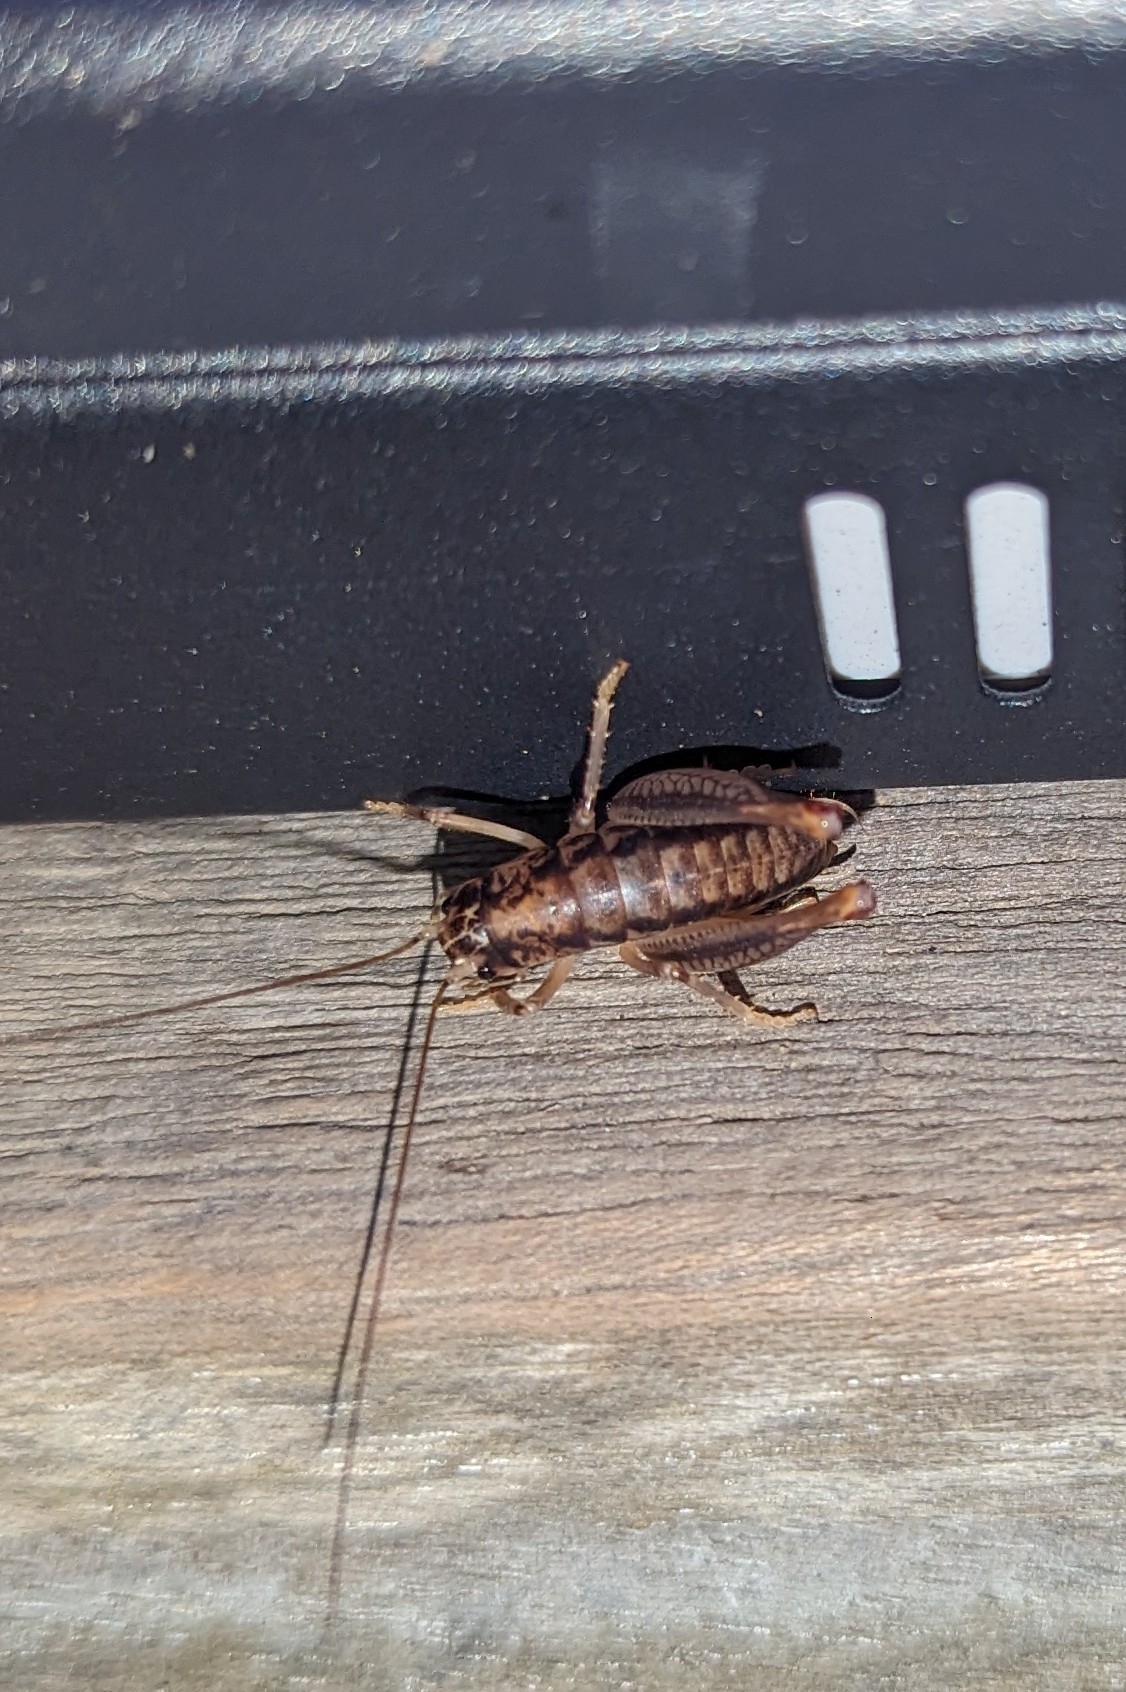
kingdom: Animalia
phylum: Arthropoda
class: Insecta
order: Orthoptera
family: Anostostomatidae
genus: Cnemotettix
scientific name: Cnemotettix bifasciatus
